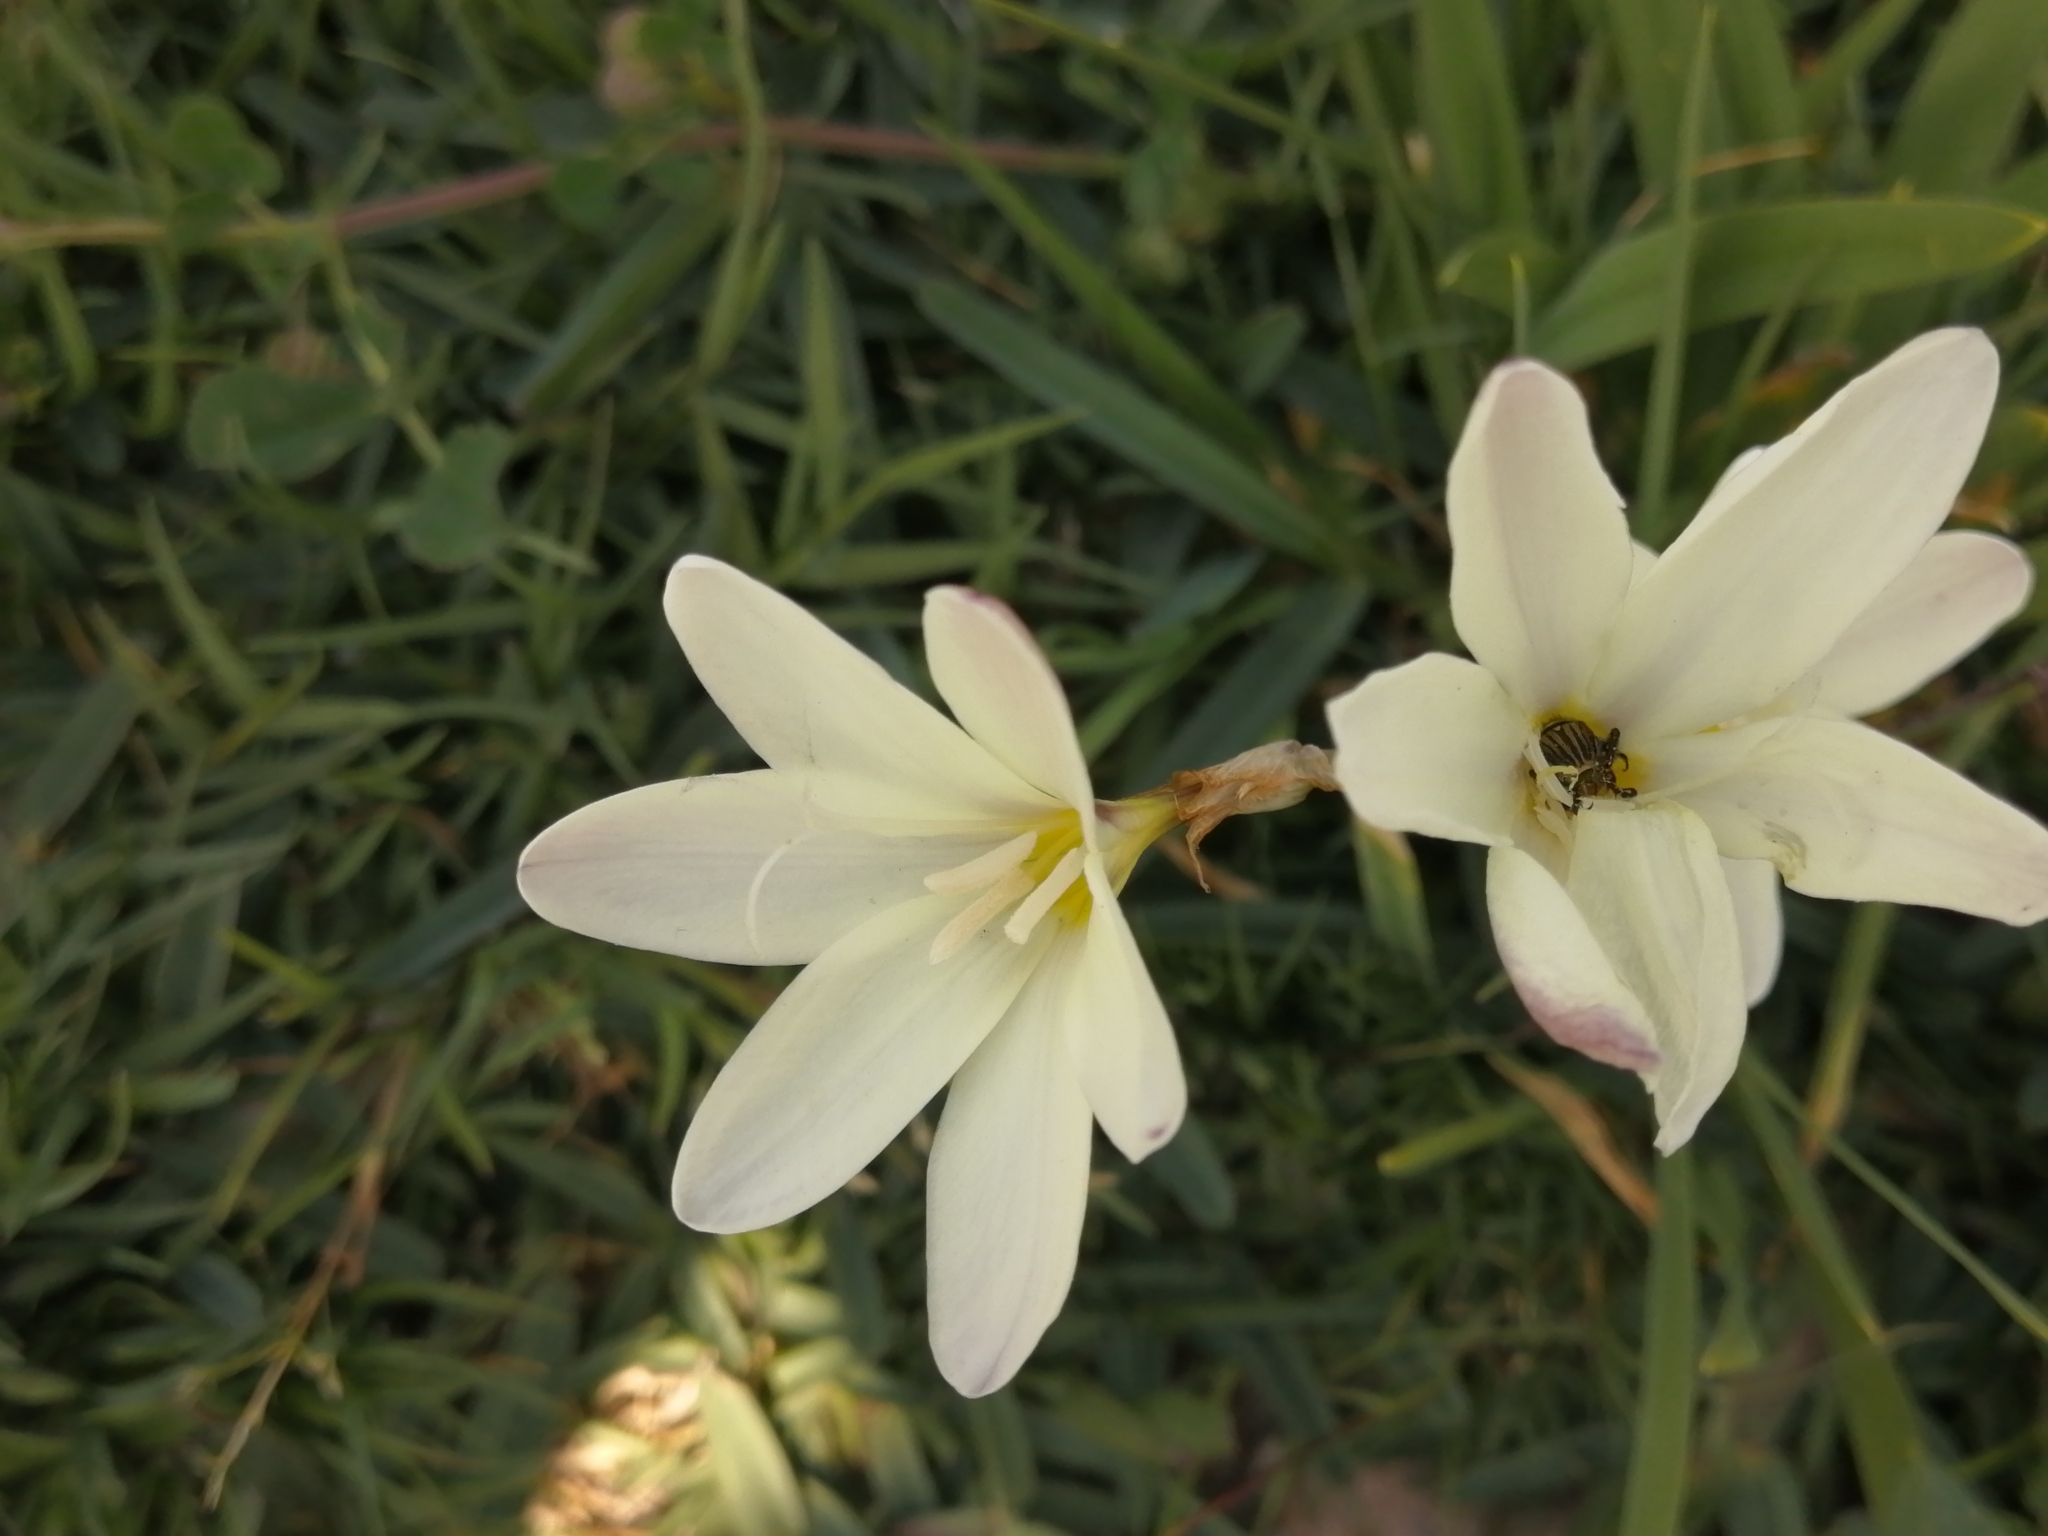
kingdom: Plantae
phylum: Tracheophyta
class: Liliopsida
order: Asparagales
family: Iridaceae
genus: Sparaxis
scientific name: Sparaxis bulbifera
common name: Harlequin-flower
